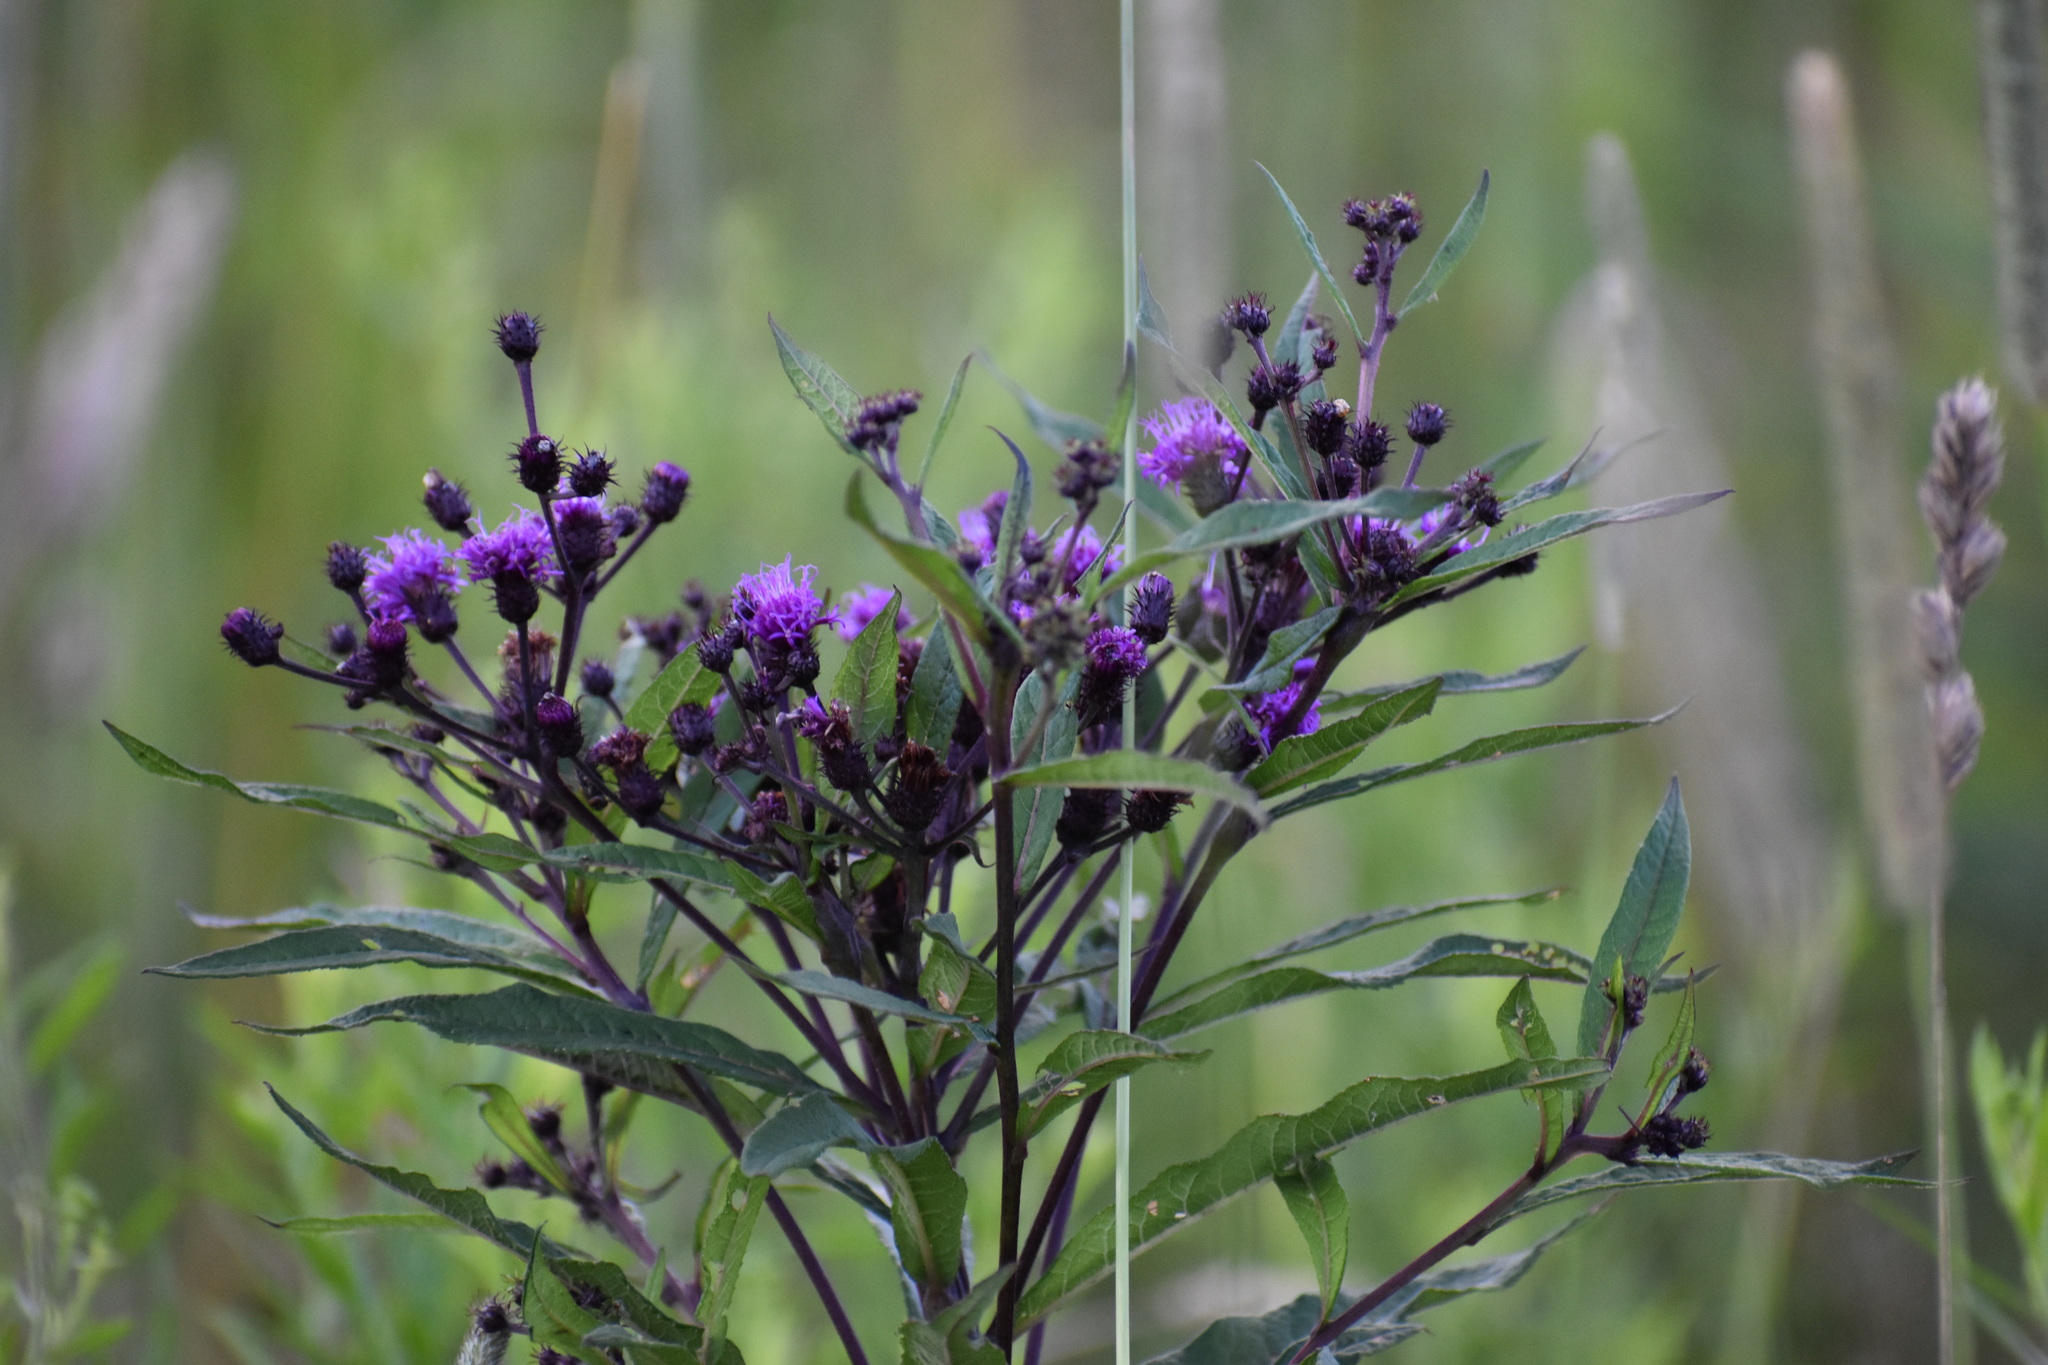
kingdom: Plantae
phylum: Tracheophyta
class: Magnoliopsida
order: Asterales
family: Asteraceae
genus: Vernonia
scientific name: Vernonia noveboracensis
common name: New york ironweed
